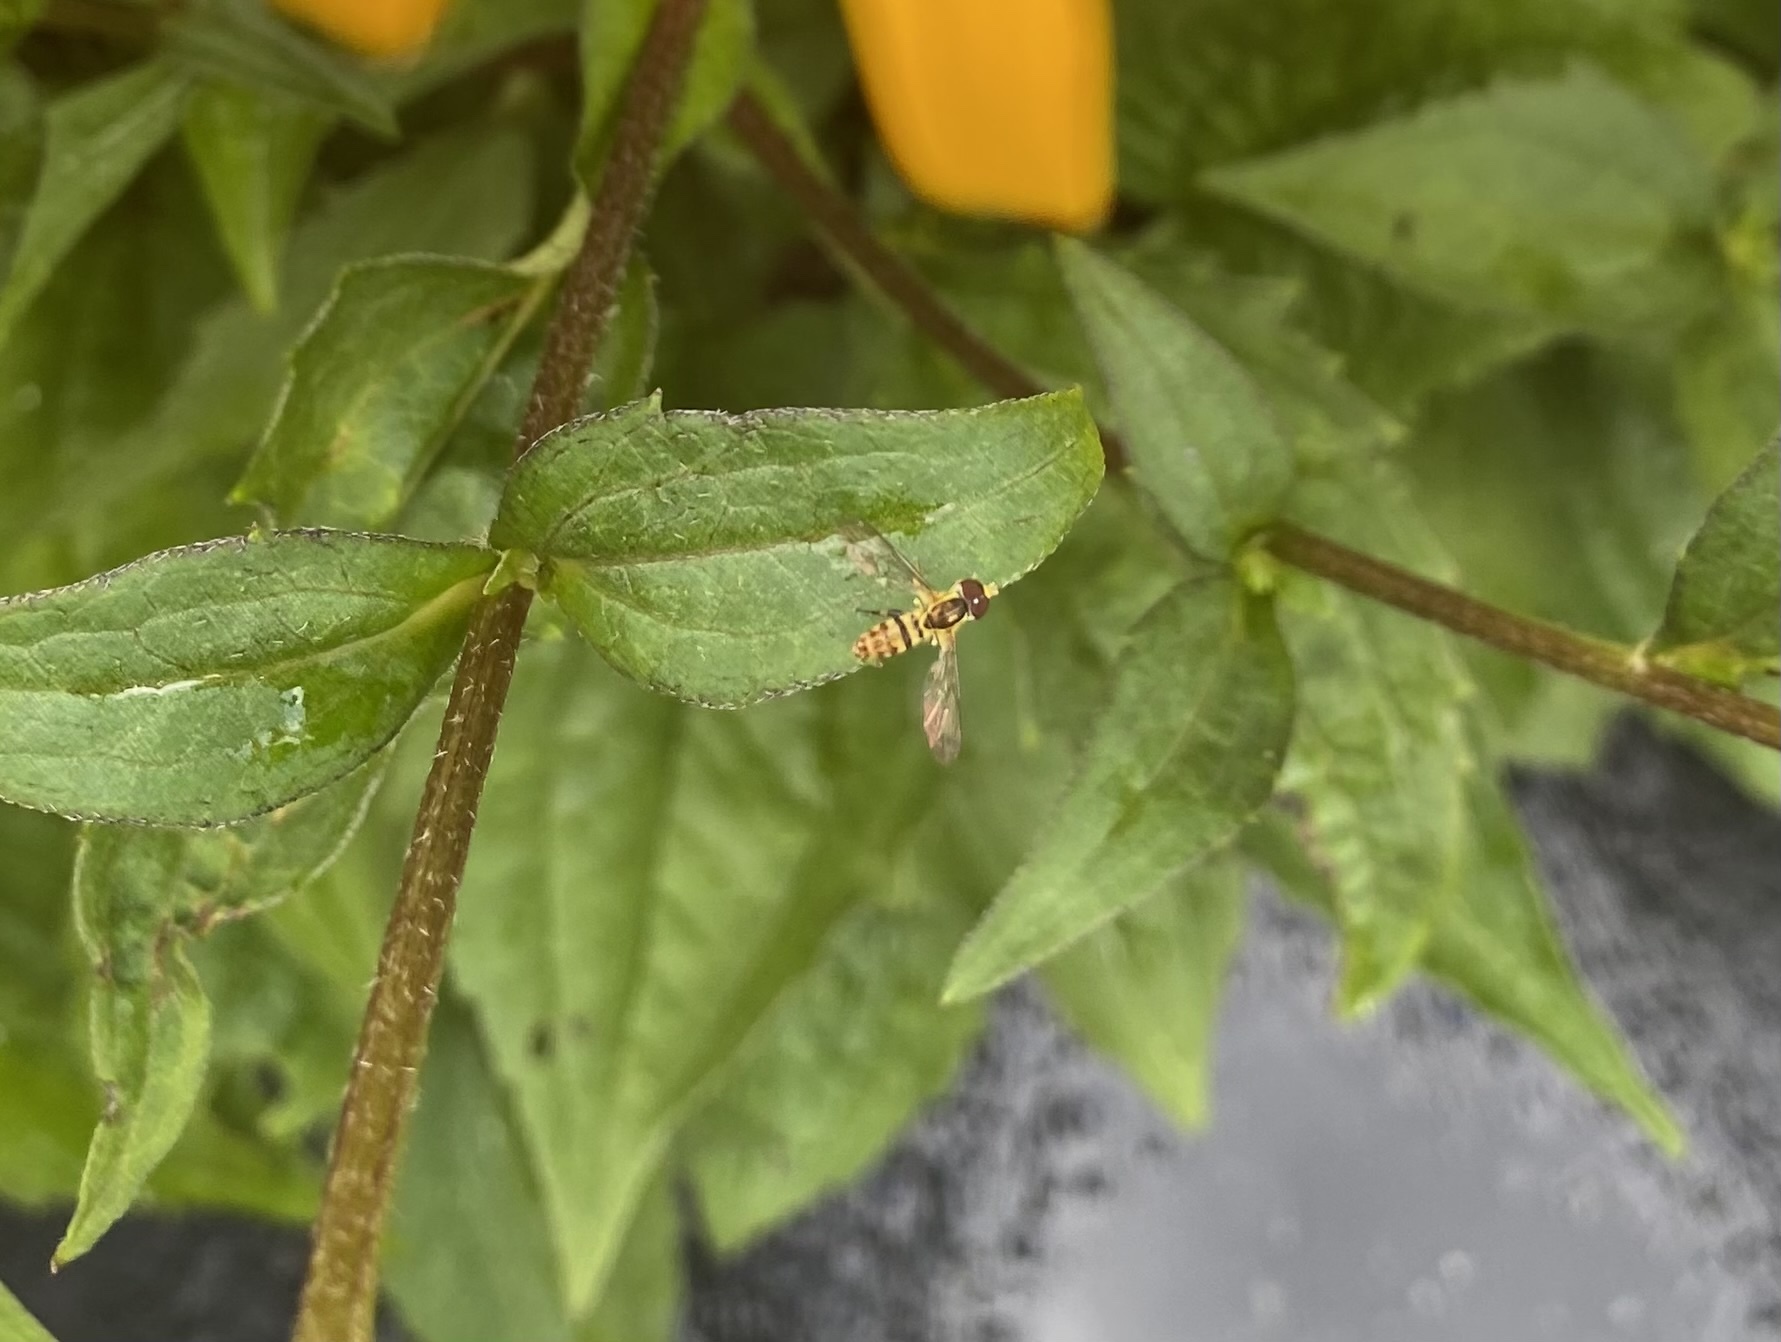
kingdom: Animalia
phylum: Arthropoda
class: Insecta
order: Diptera
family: Syrphidae
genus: Toxomerus
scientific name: Toxomerus geminatus
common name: Eastern calligrapher
